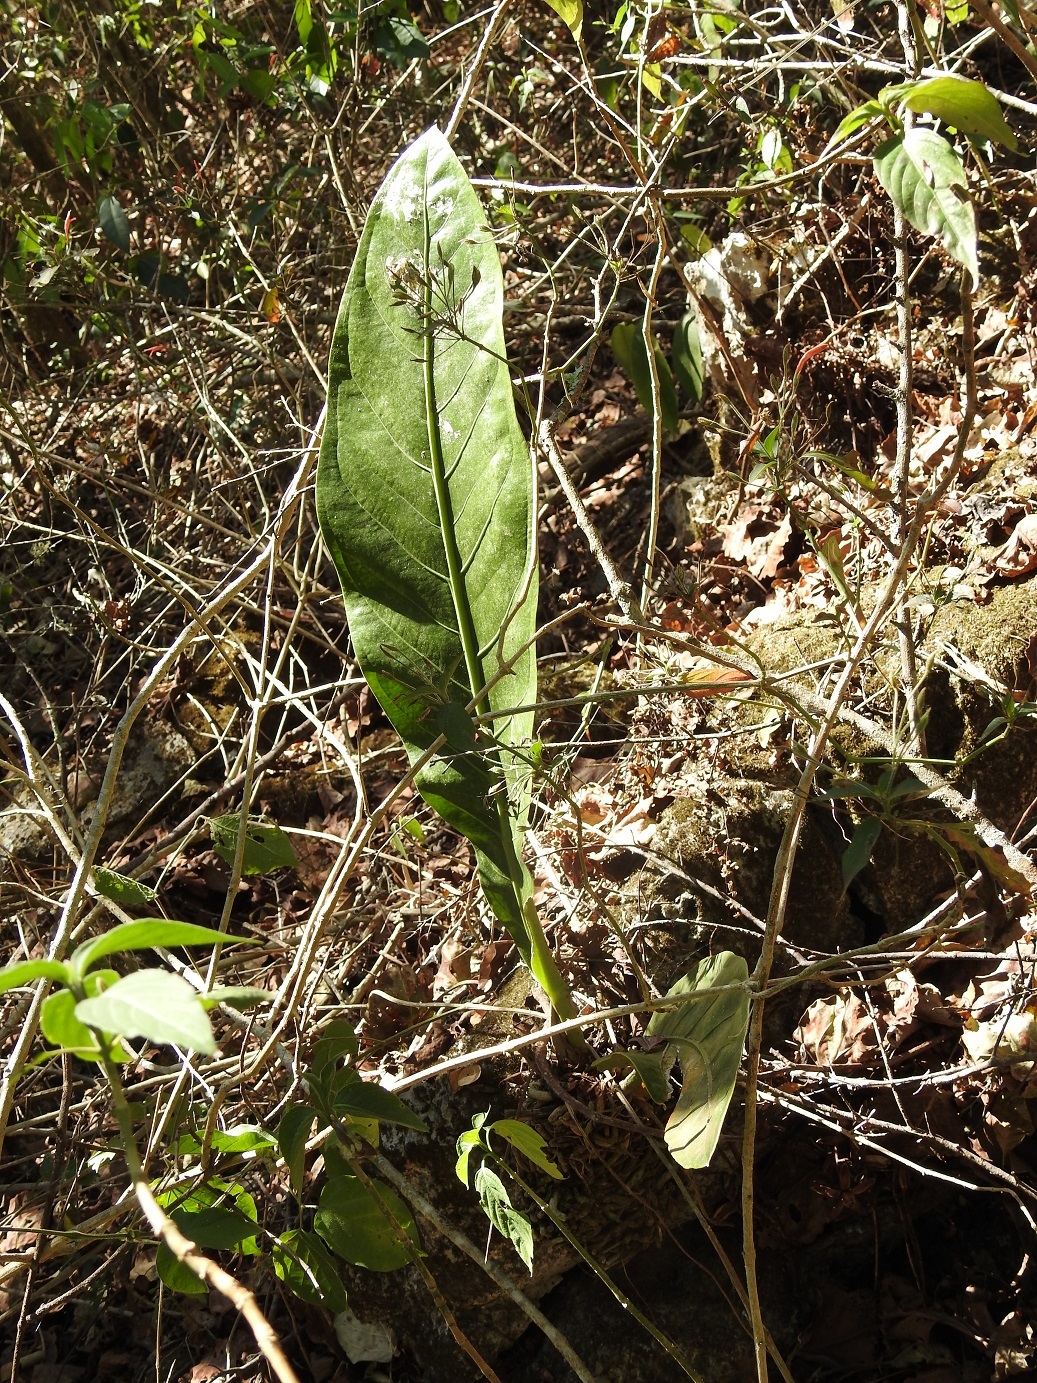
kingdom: Plantae
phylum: Tracheophyta
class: Liliopsida
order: Alismatales
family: Araceae
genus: Anthurium
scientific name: Anthurium schlechtendalii
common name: Laceleaf
